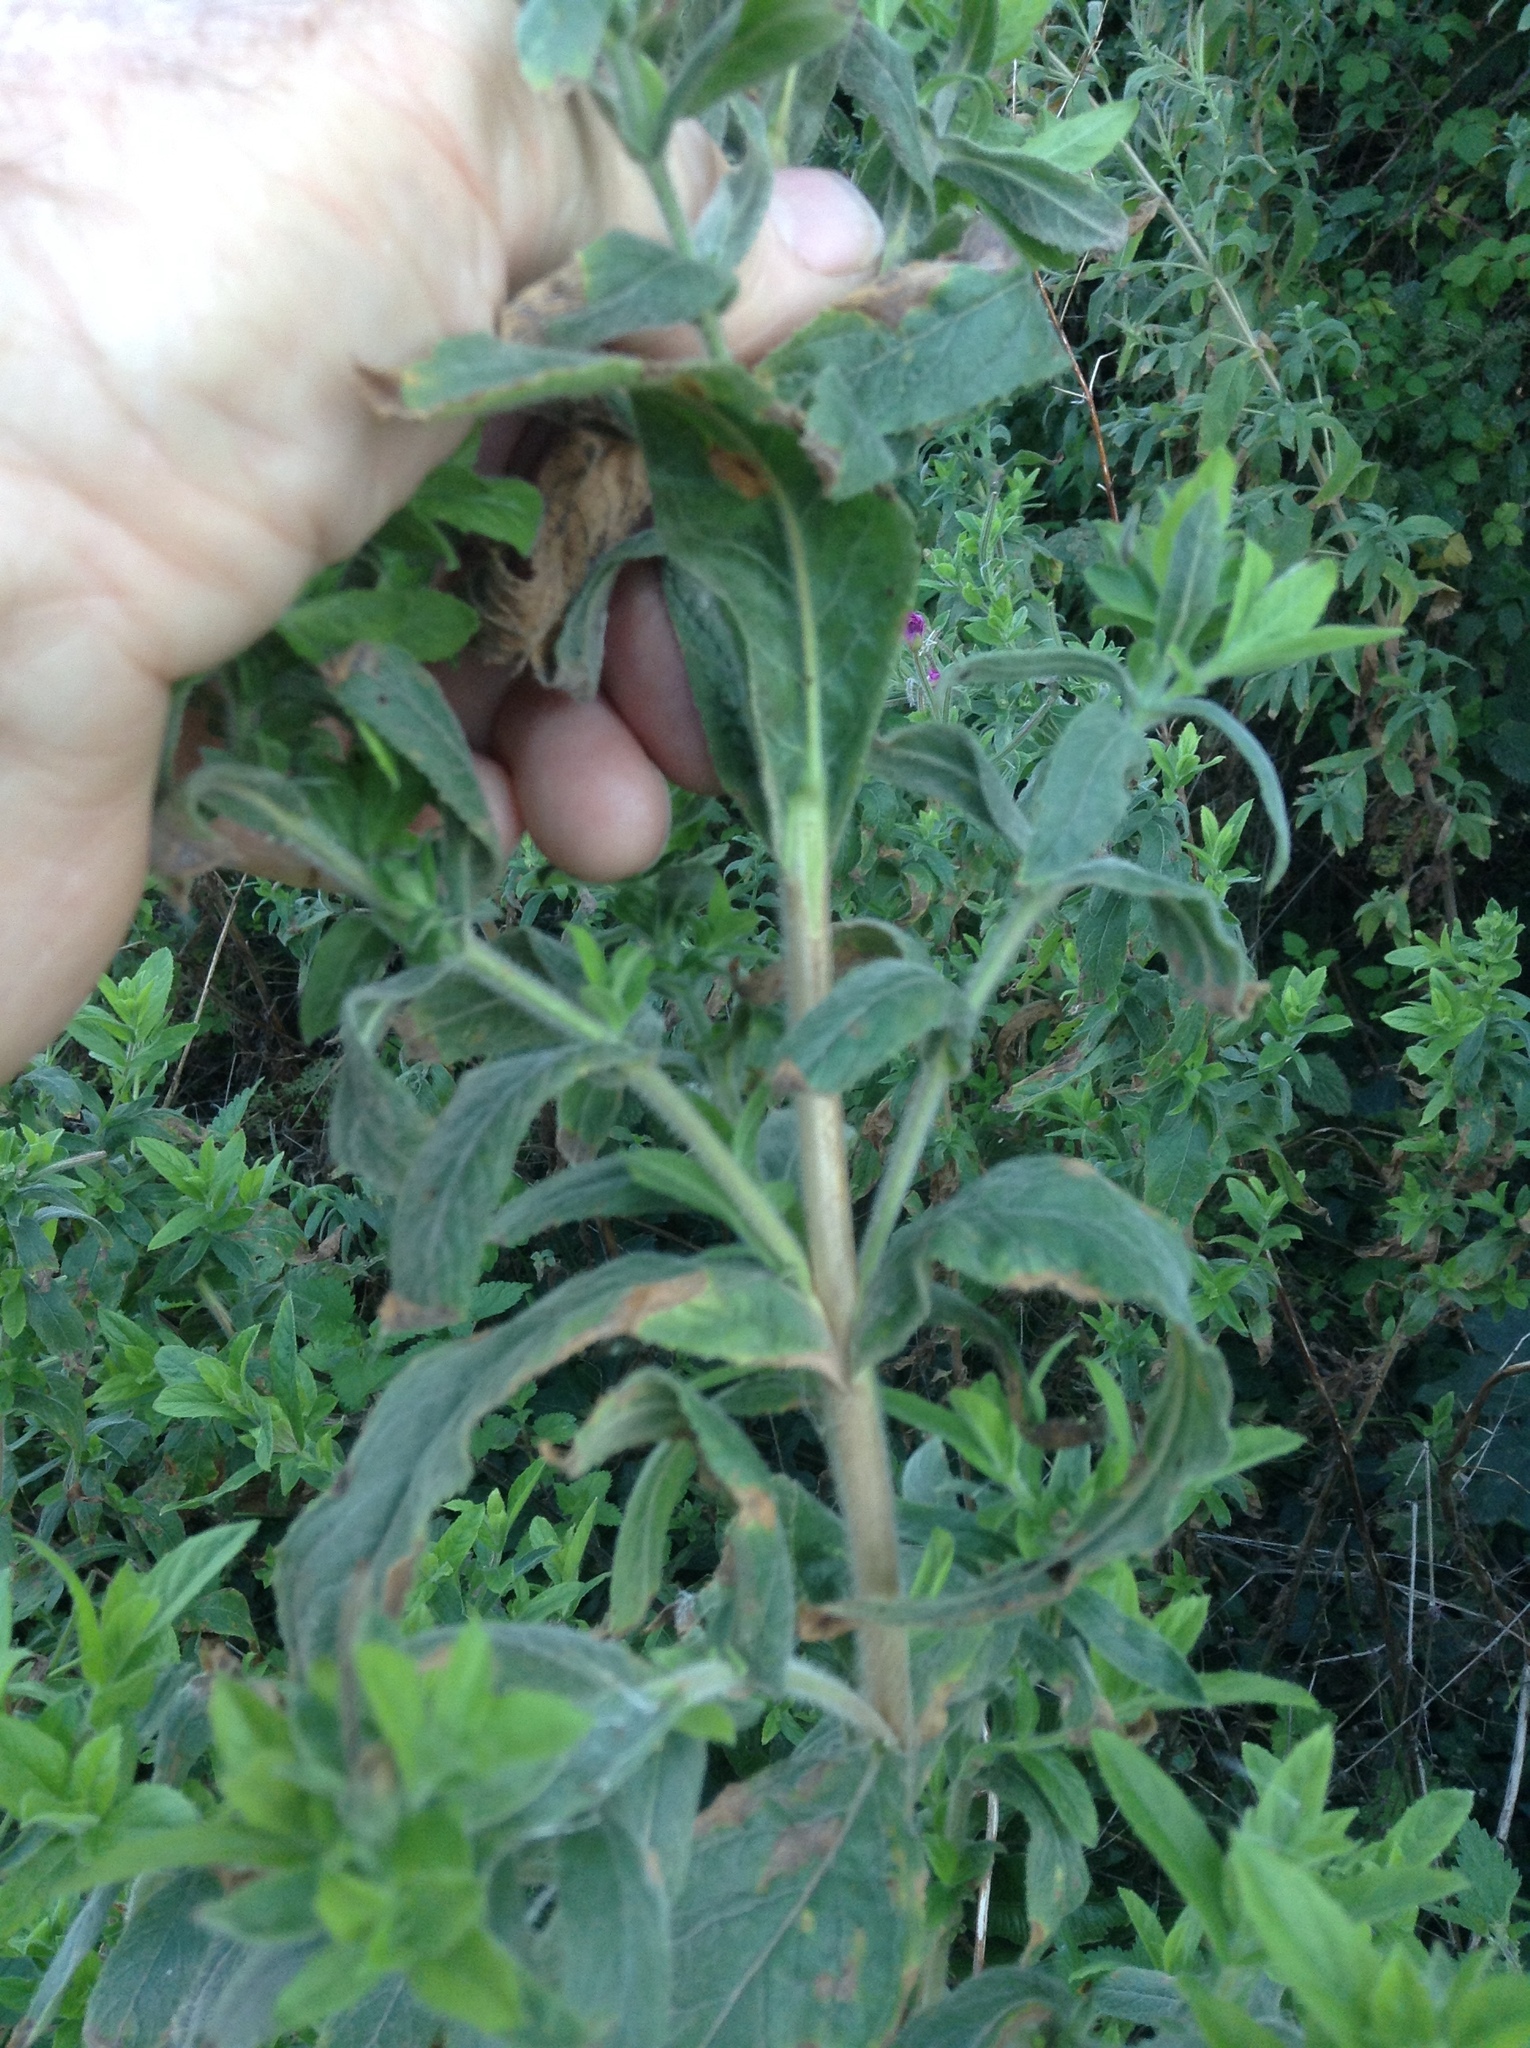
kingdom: Plantae
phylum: Tracheophyta
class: Magnoliopsida
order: Myrtales
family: Onagraceae
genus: Epilobium
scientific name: Epilobium hirsutum
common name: Great willowherb
